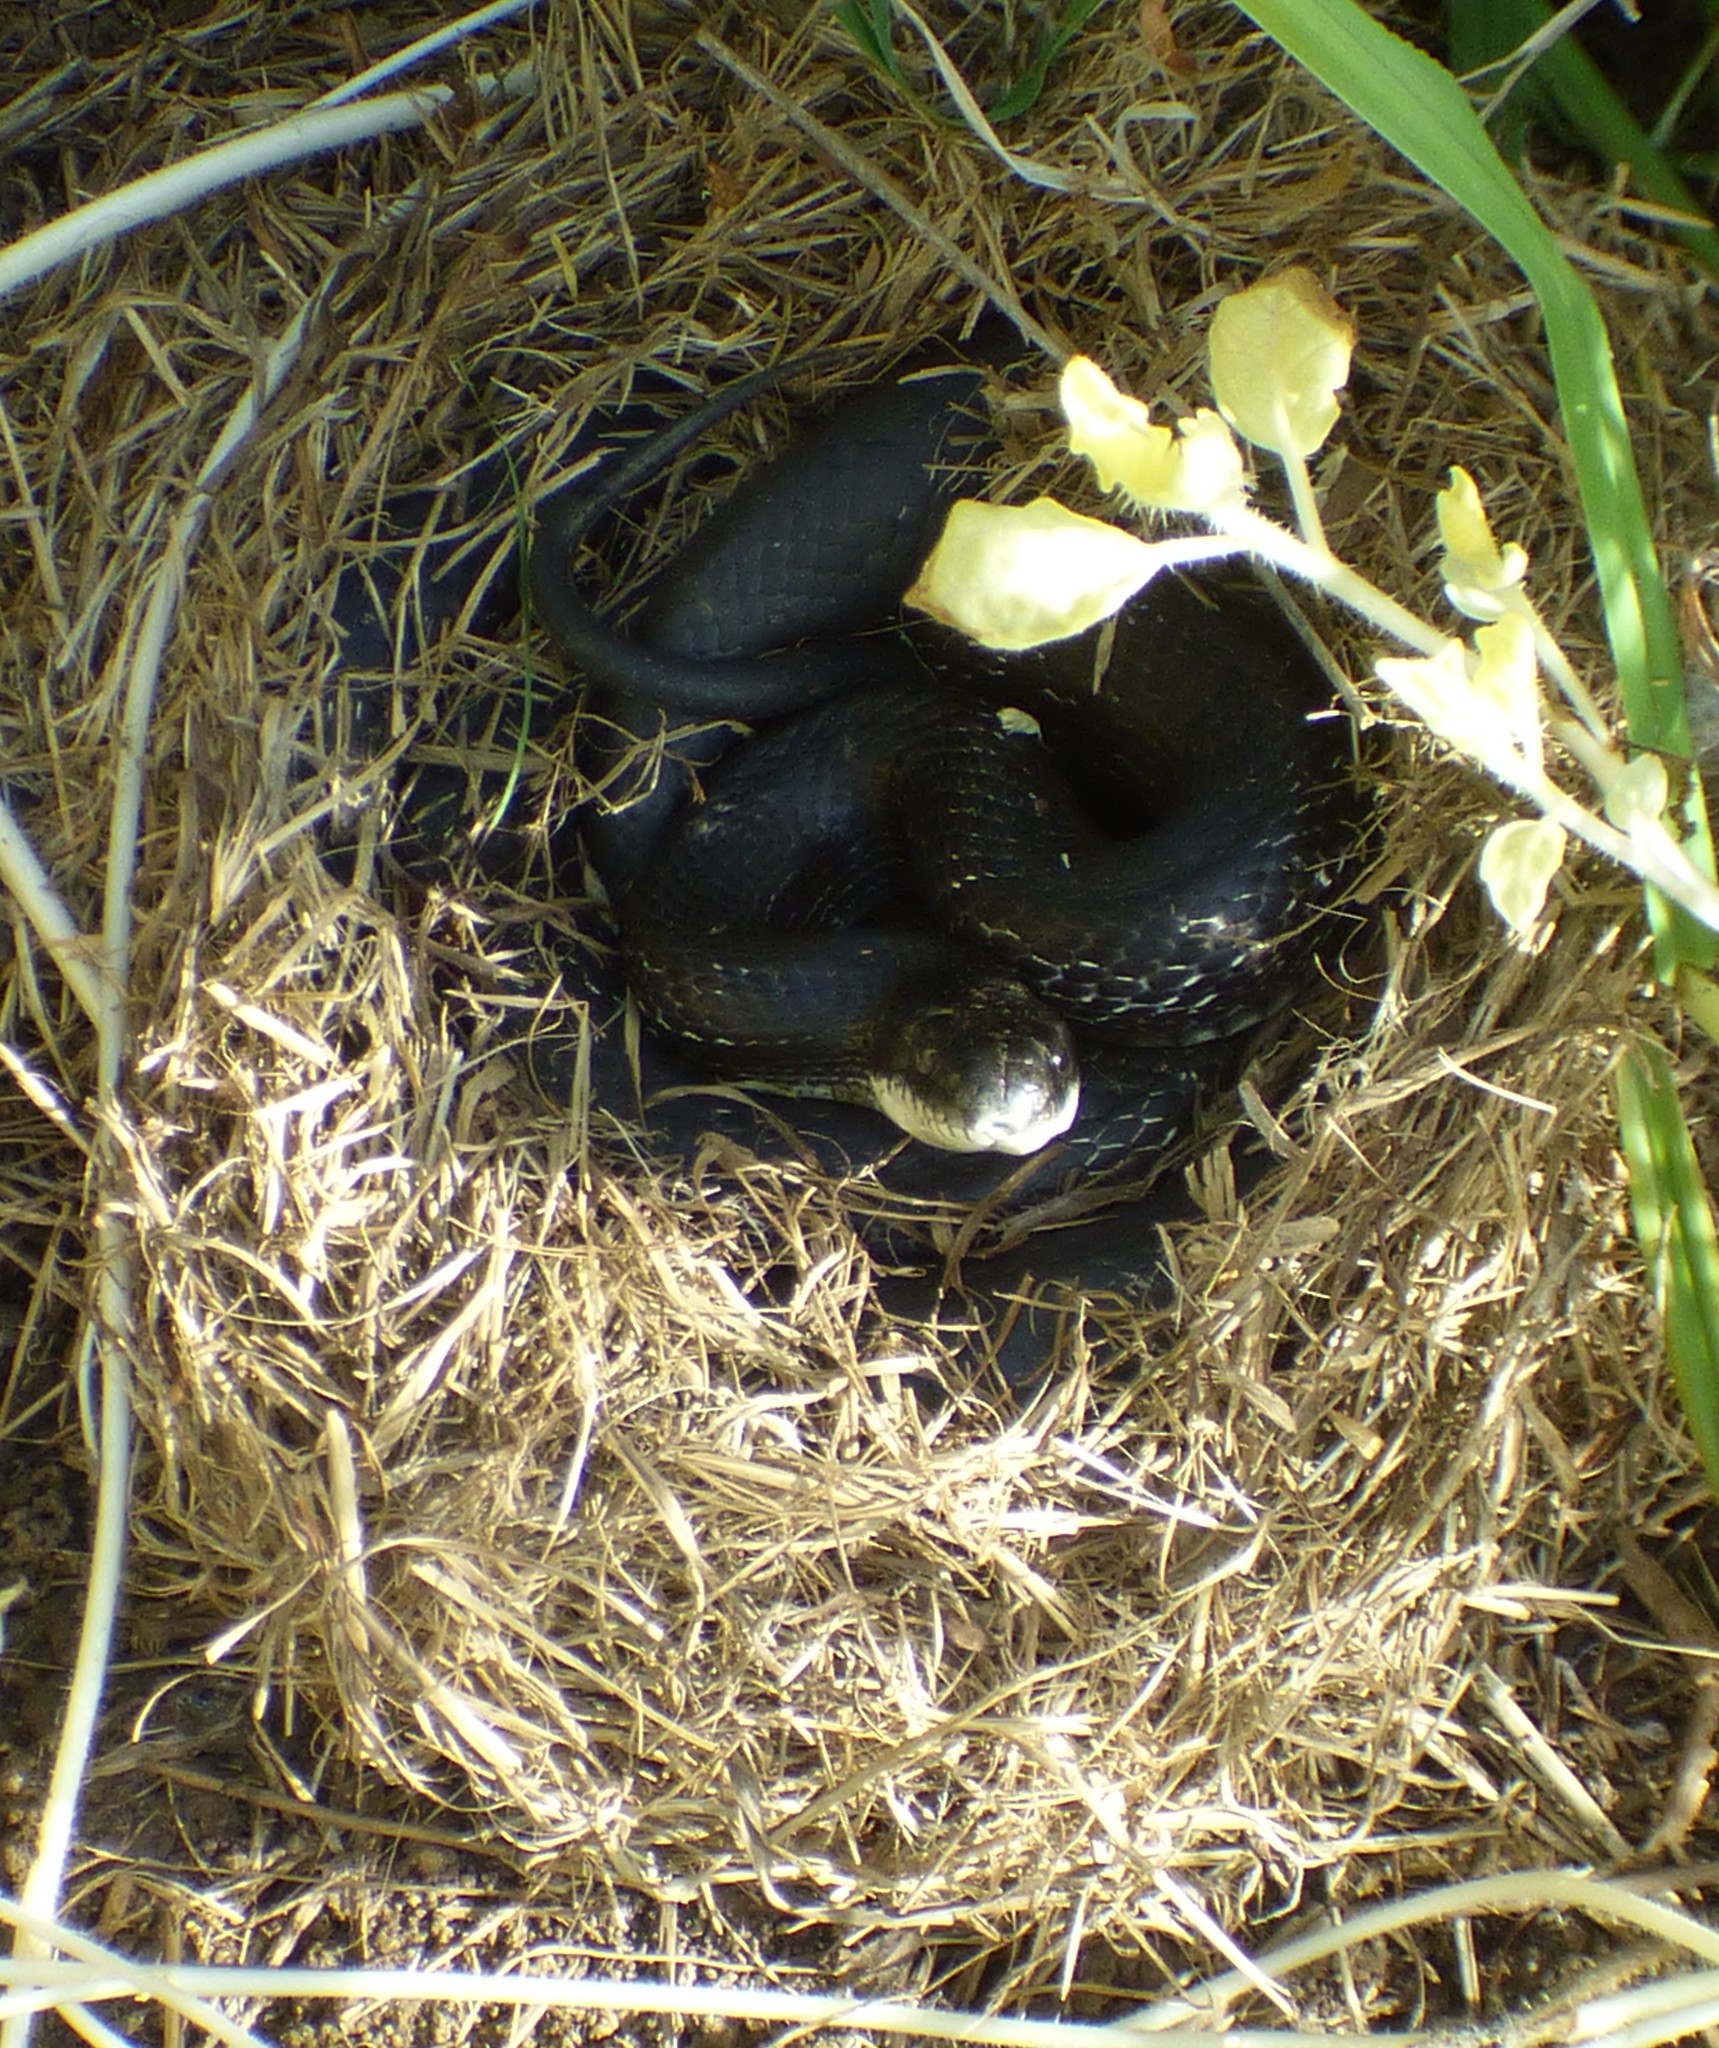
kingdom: Animalia
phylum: Chordata
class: Squamata
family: Colubridae
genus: Pantherophis
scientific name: Pantherophis alleghaniensis
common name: Eastern rat snake
